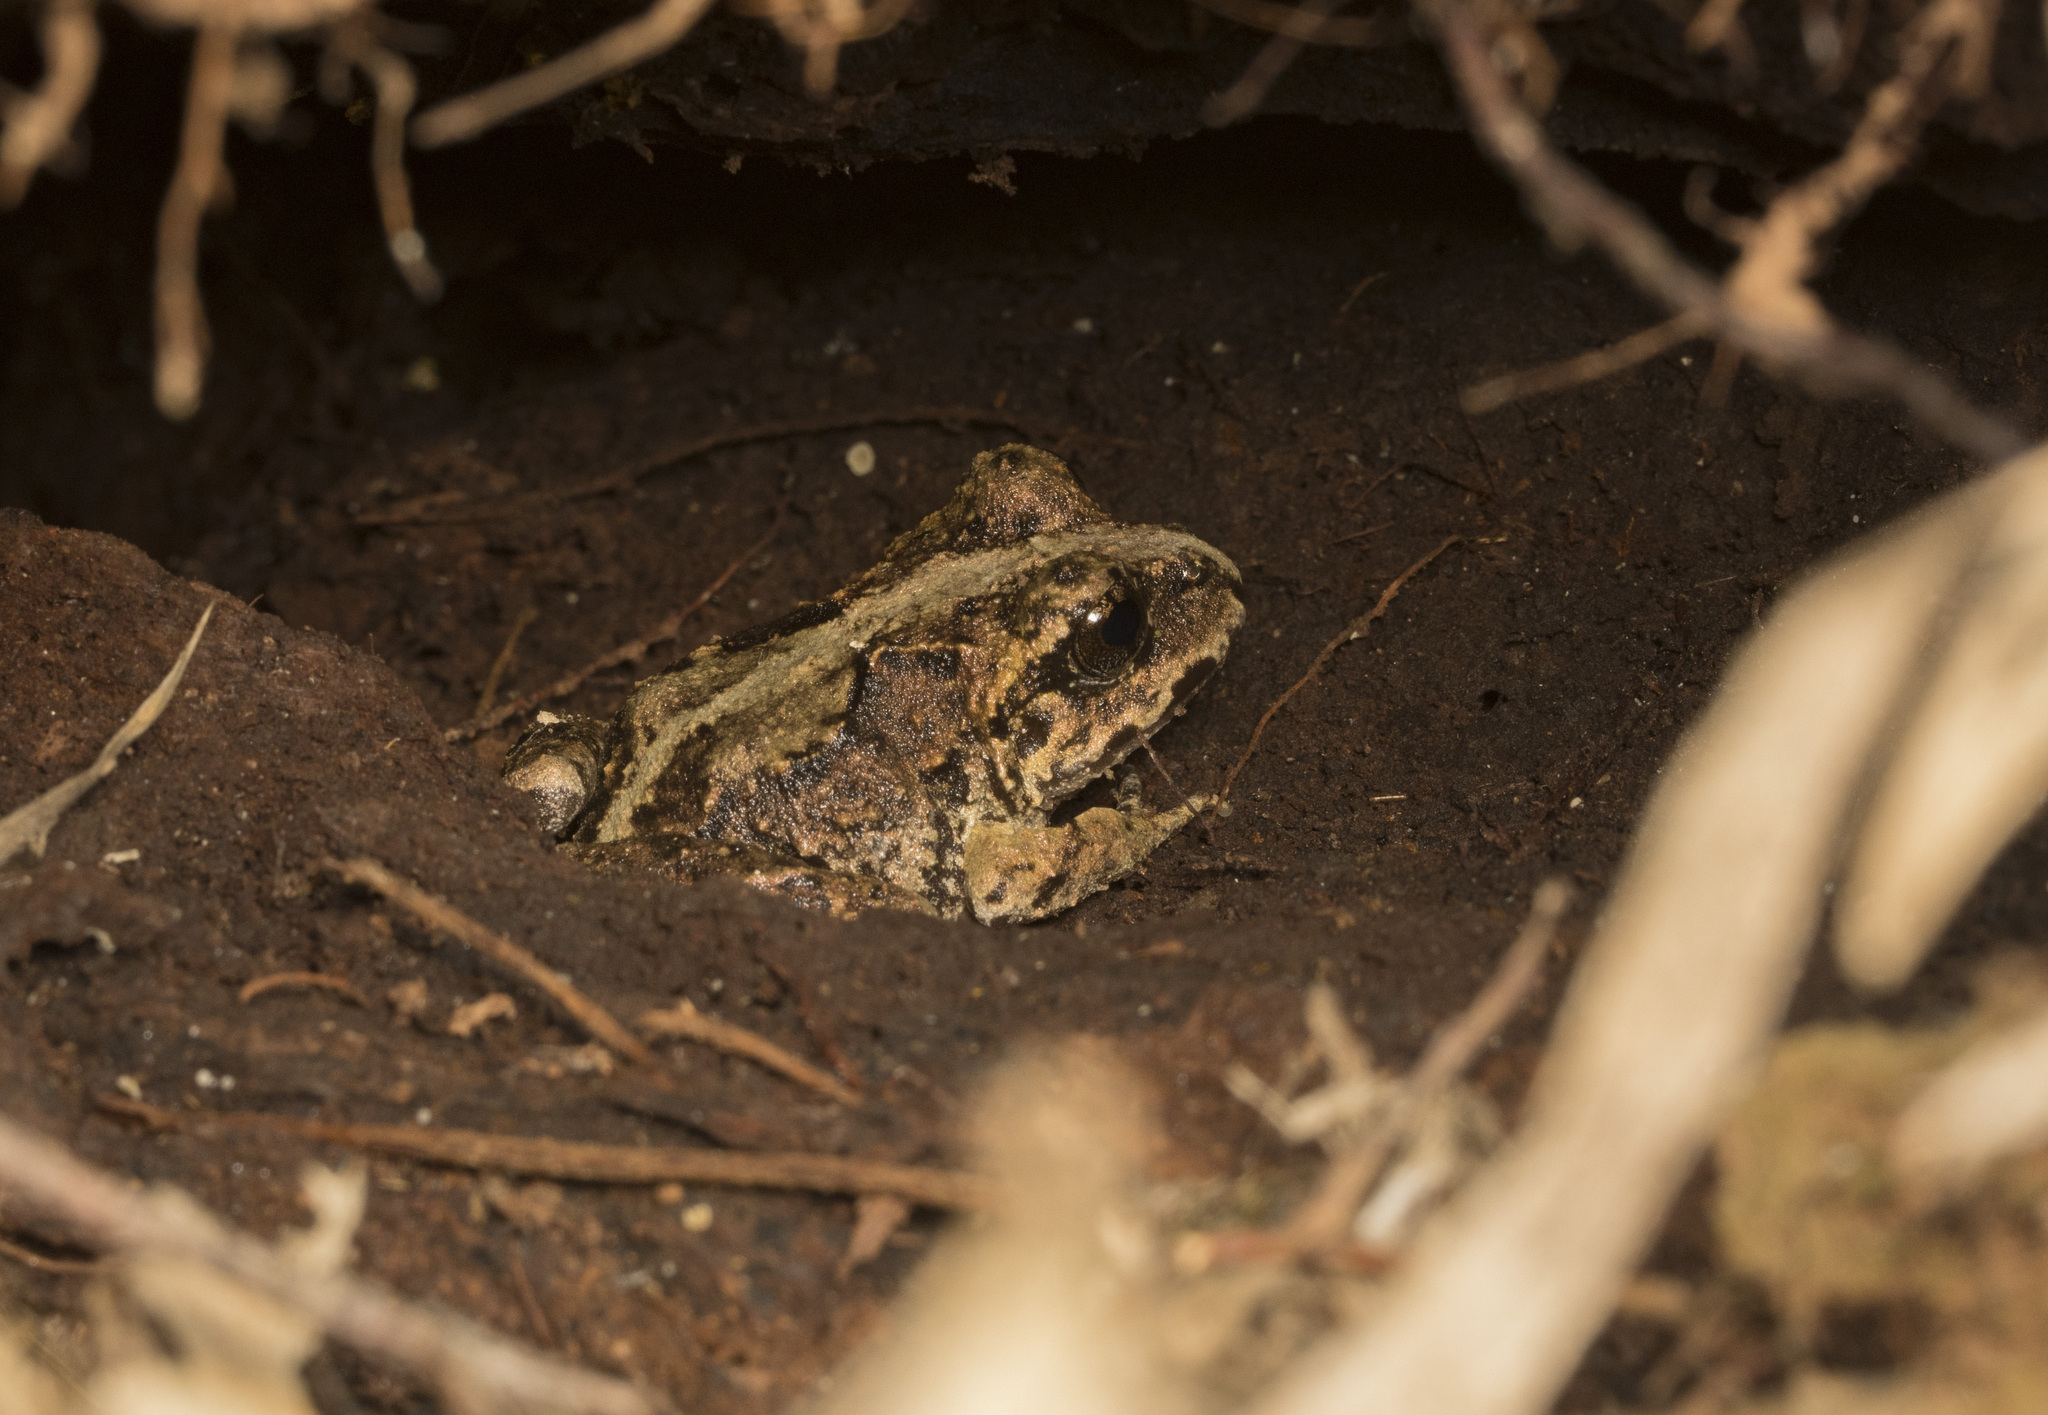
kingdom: Animalia
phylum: Chordata
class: Amphibia
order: Anura
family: Alsodidae
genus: Eupsophus
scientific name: Eupsophus vertebralis
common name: Valdivia ground frog
